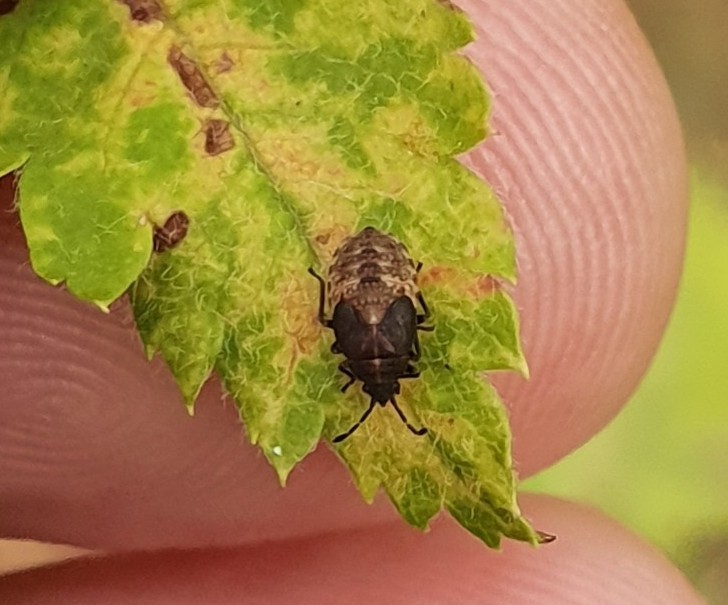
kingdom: Animalia
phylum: Arthropoda
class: Insecta
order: Hemiptera
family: Lygaeidae
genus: Kleidocerys
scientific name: Kleidocerys resedae
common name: Birch catkin bug
